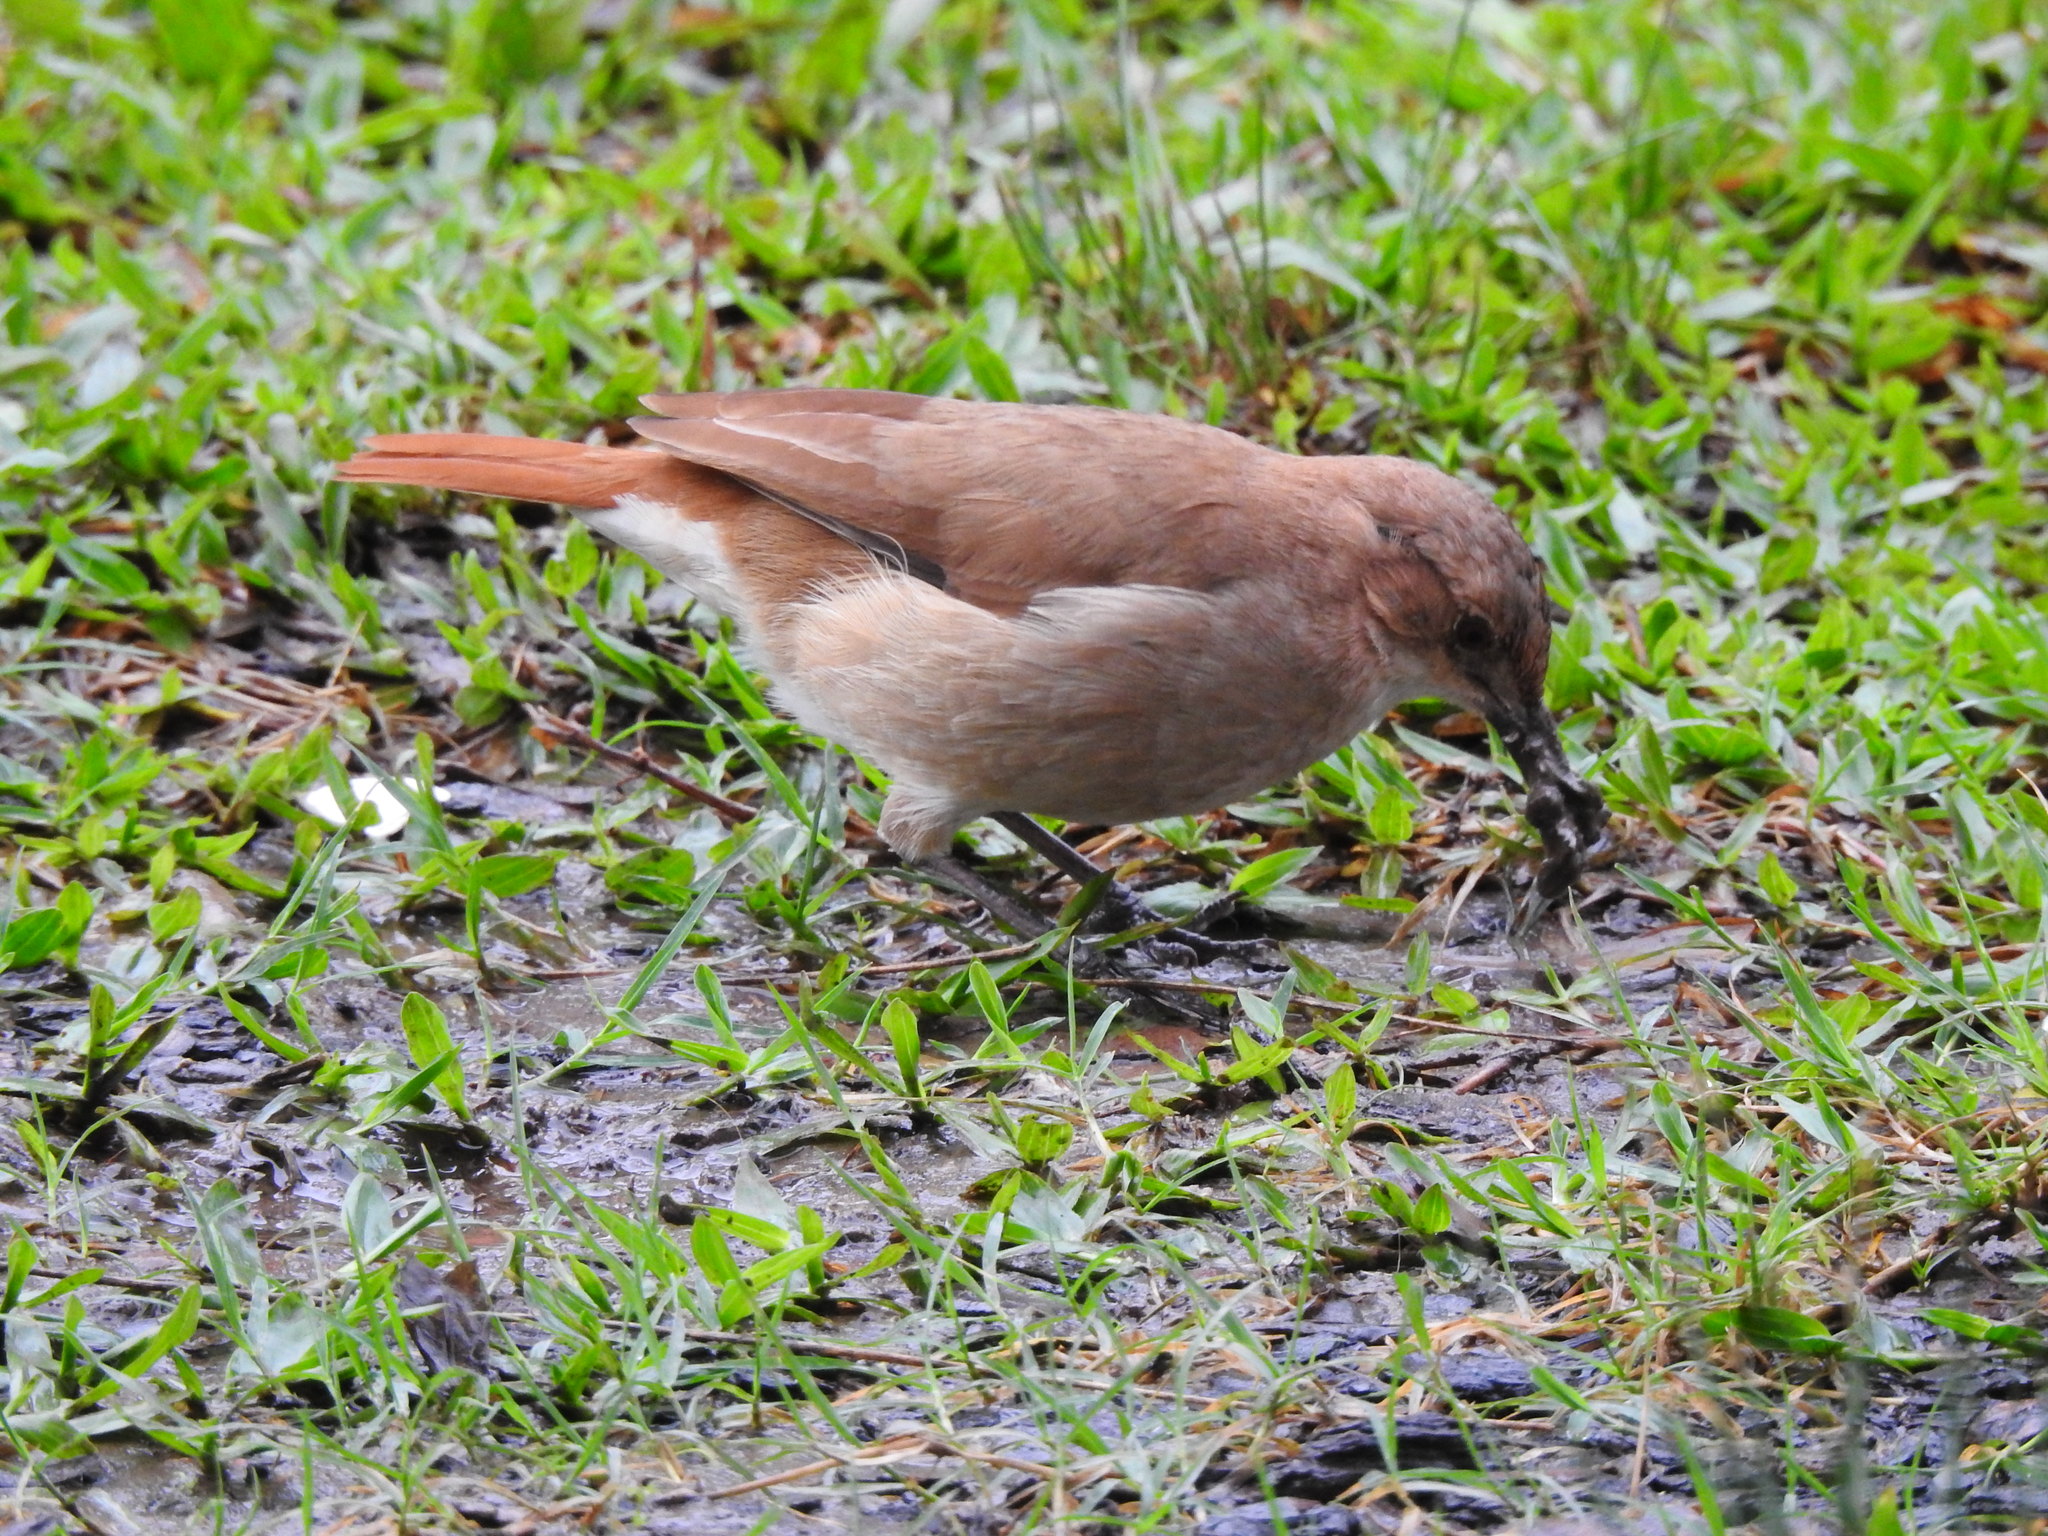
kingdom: Animalia
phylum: Chordata
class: Aves
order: Passeriformes
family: Furnariidae
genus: Furnarius
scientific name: Furnarius rufus
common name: Rufous hornero
